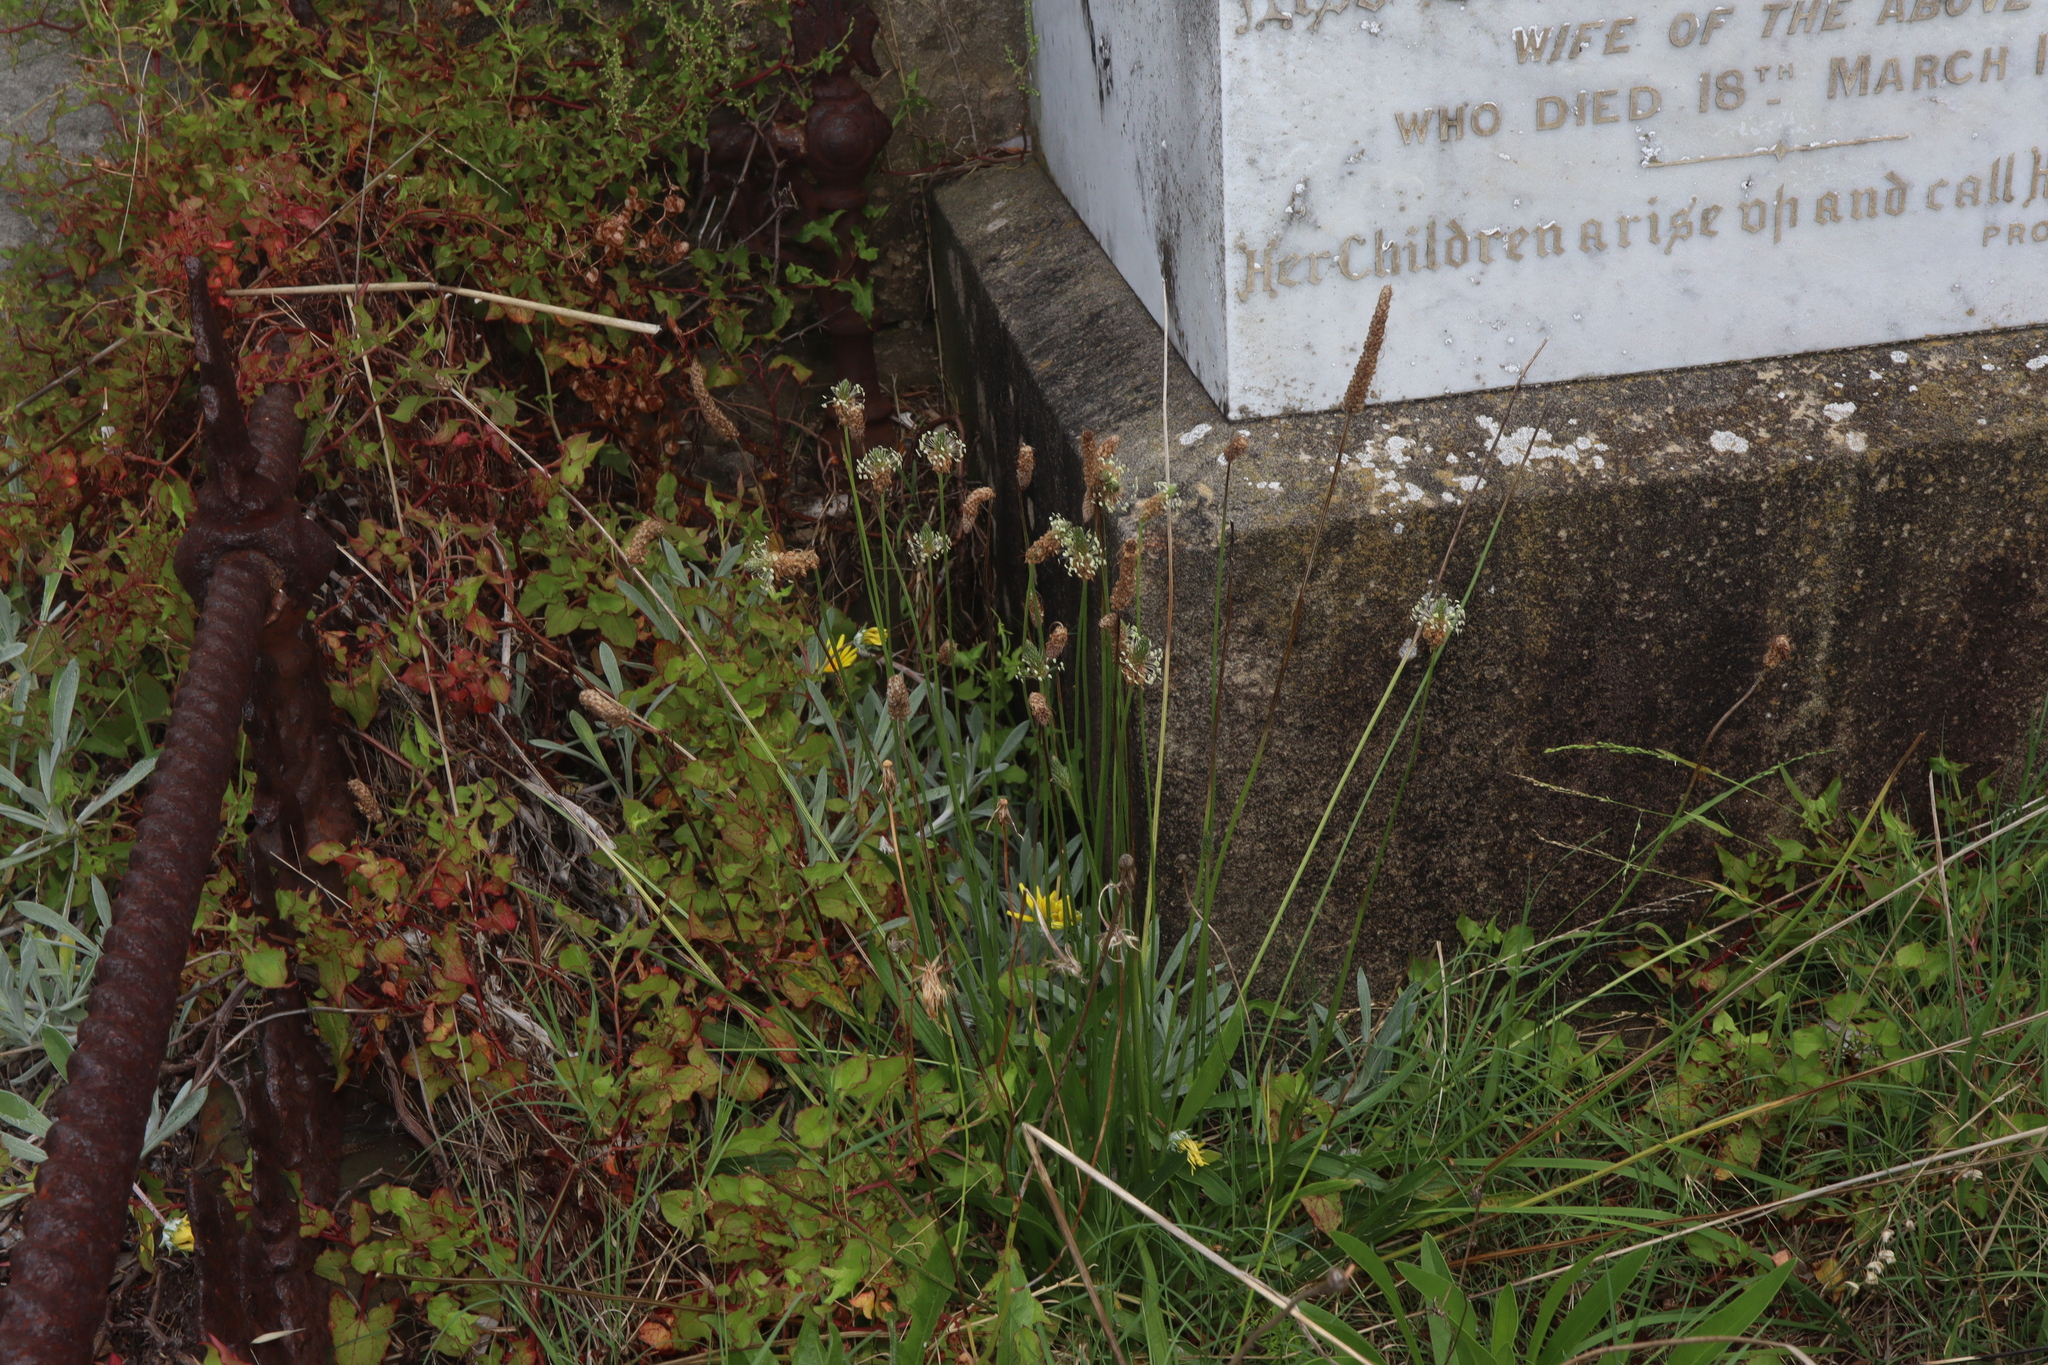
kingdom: Plantae
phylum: Tracheophyta
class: Magnoliopsida
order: Lamiales
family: Plantaginaceae
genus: Plantago
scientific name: Plantago lanceolata
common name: Ribwort plantain
